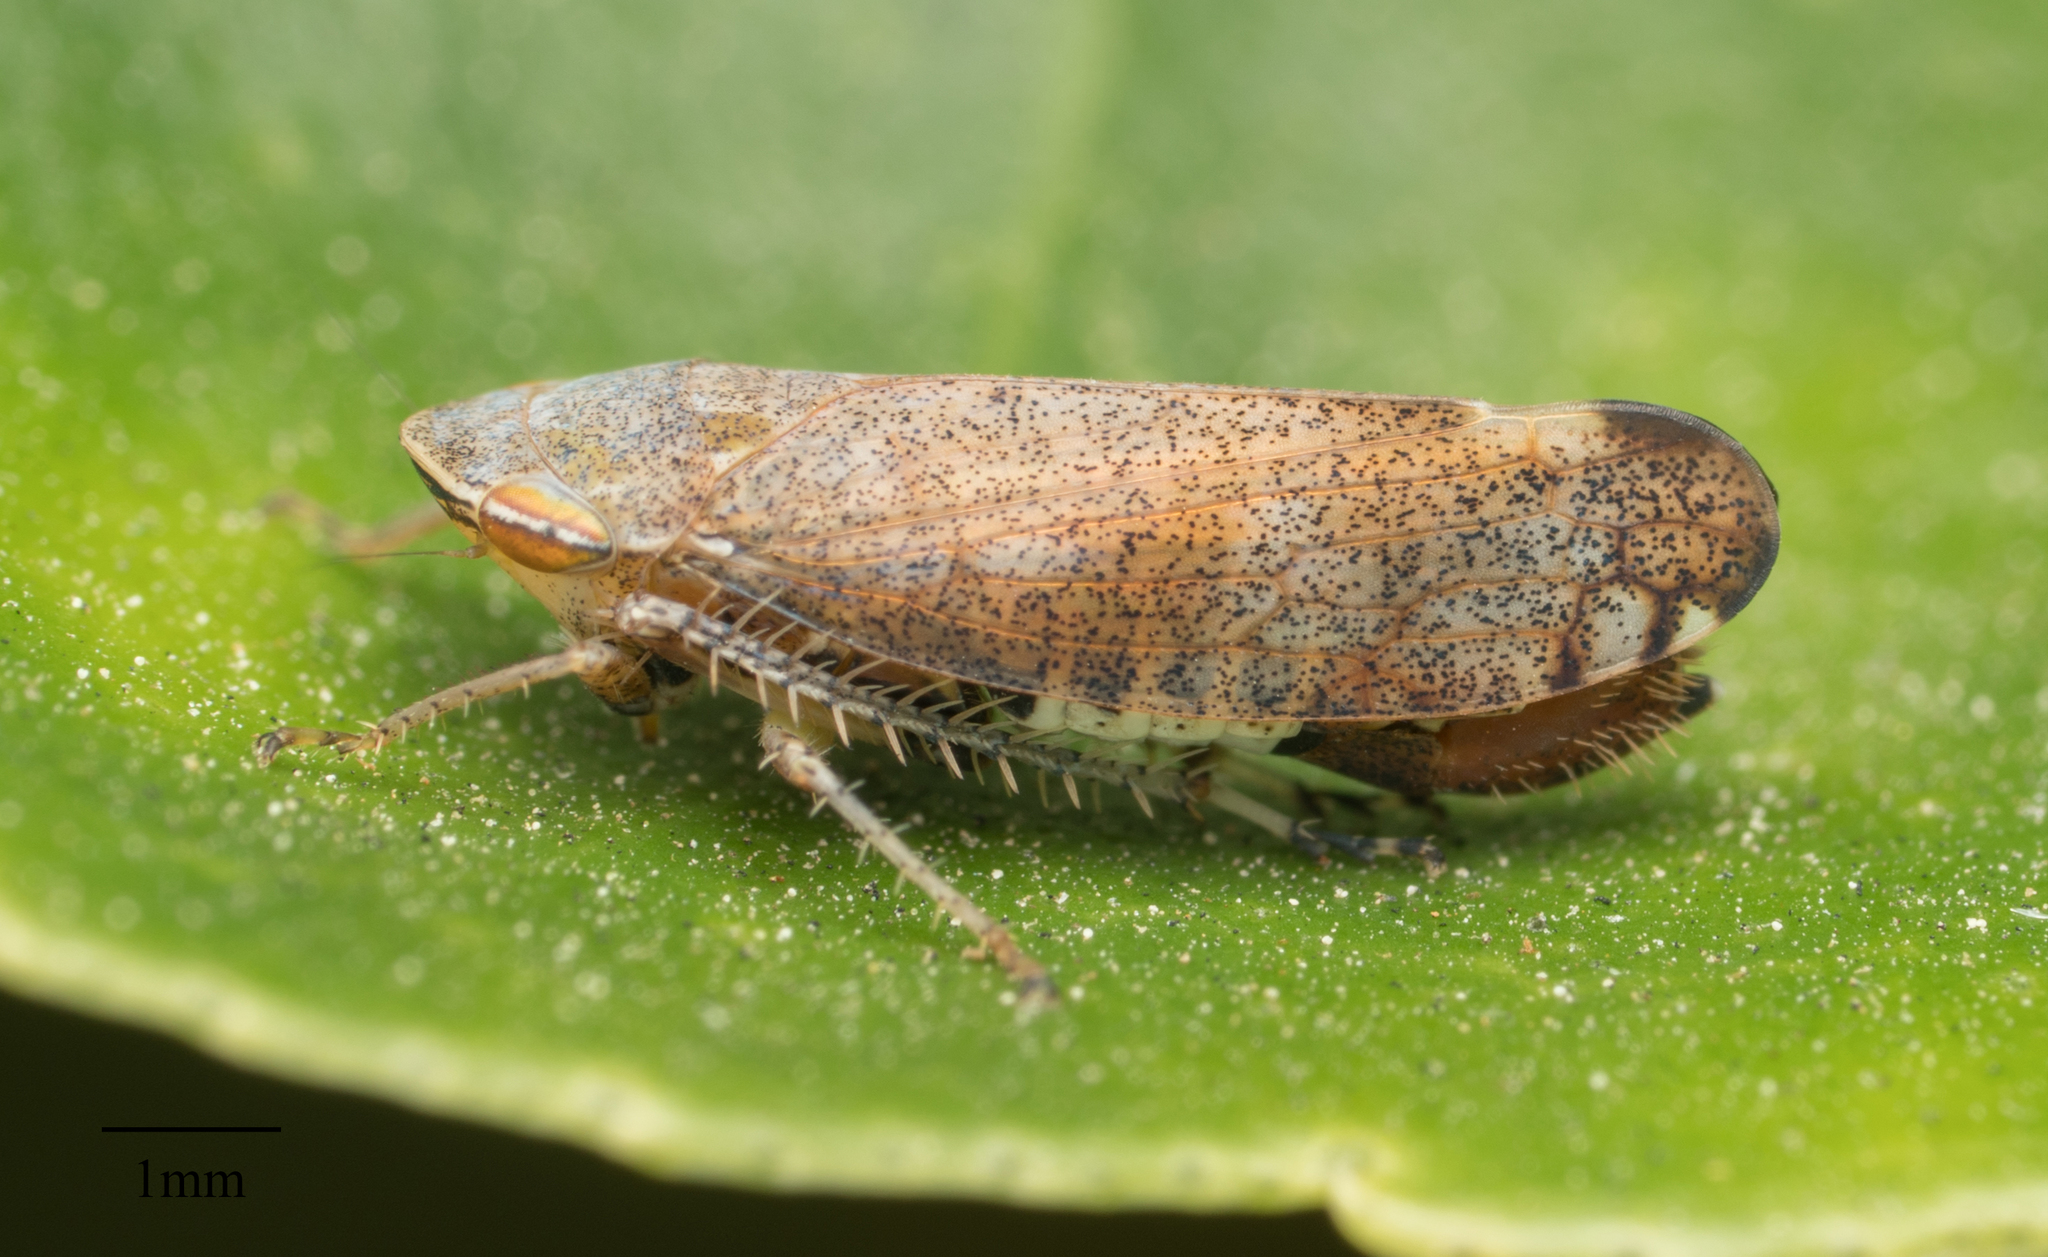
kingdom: Animalia
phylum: Arthropoda
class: Insecta
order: Hemiptera
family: Cicadellidae
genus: Fieberiella
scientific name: Fieberiella florii
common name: Flor’s leafhopper
